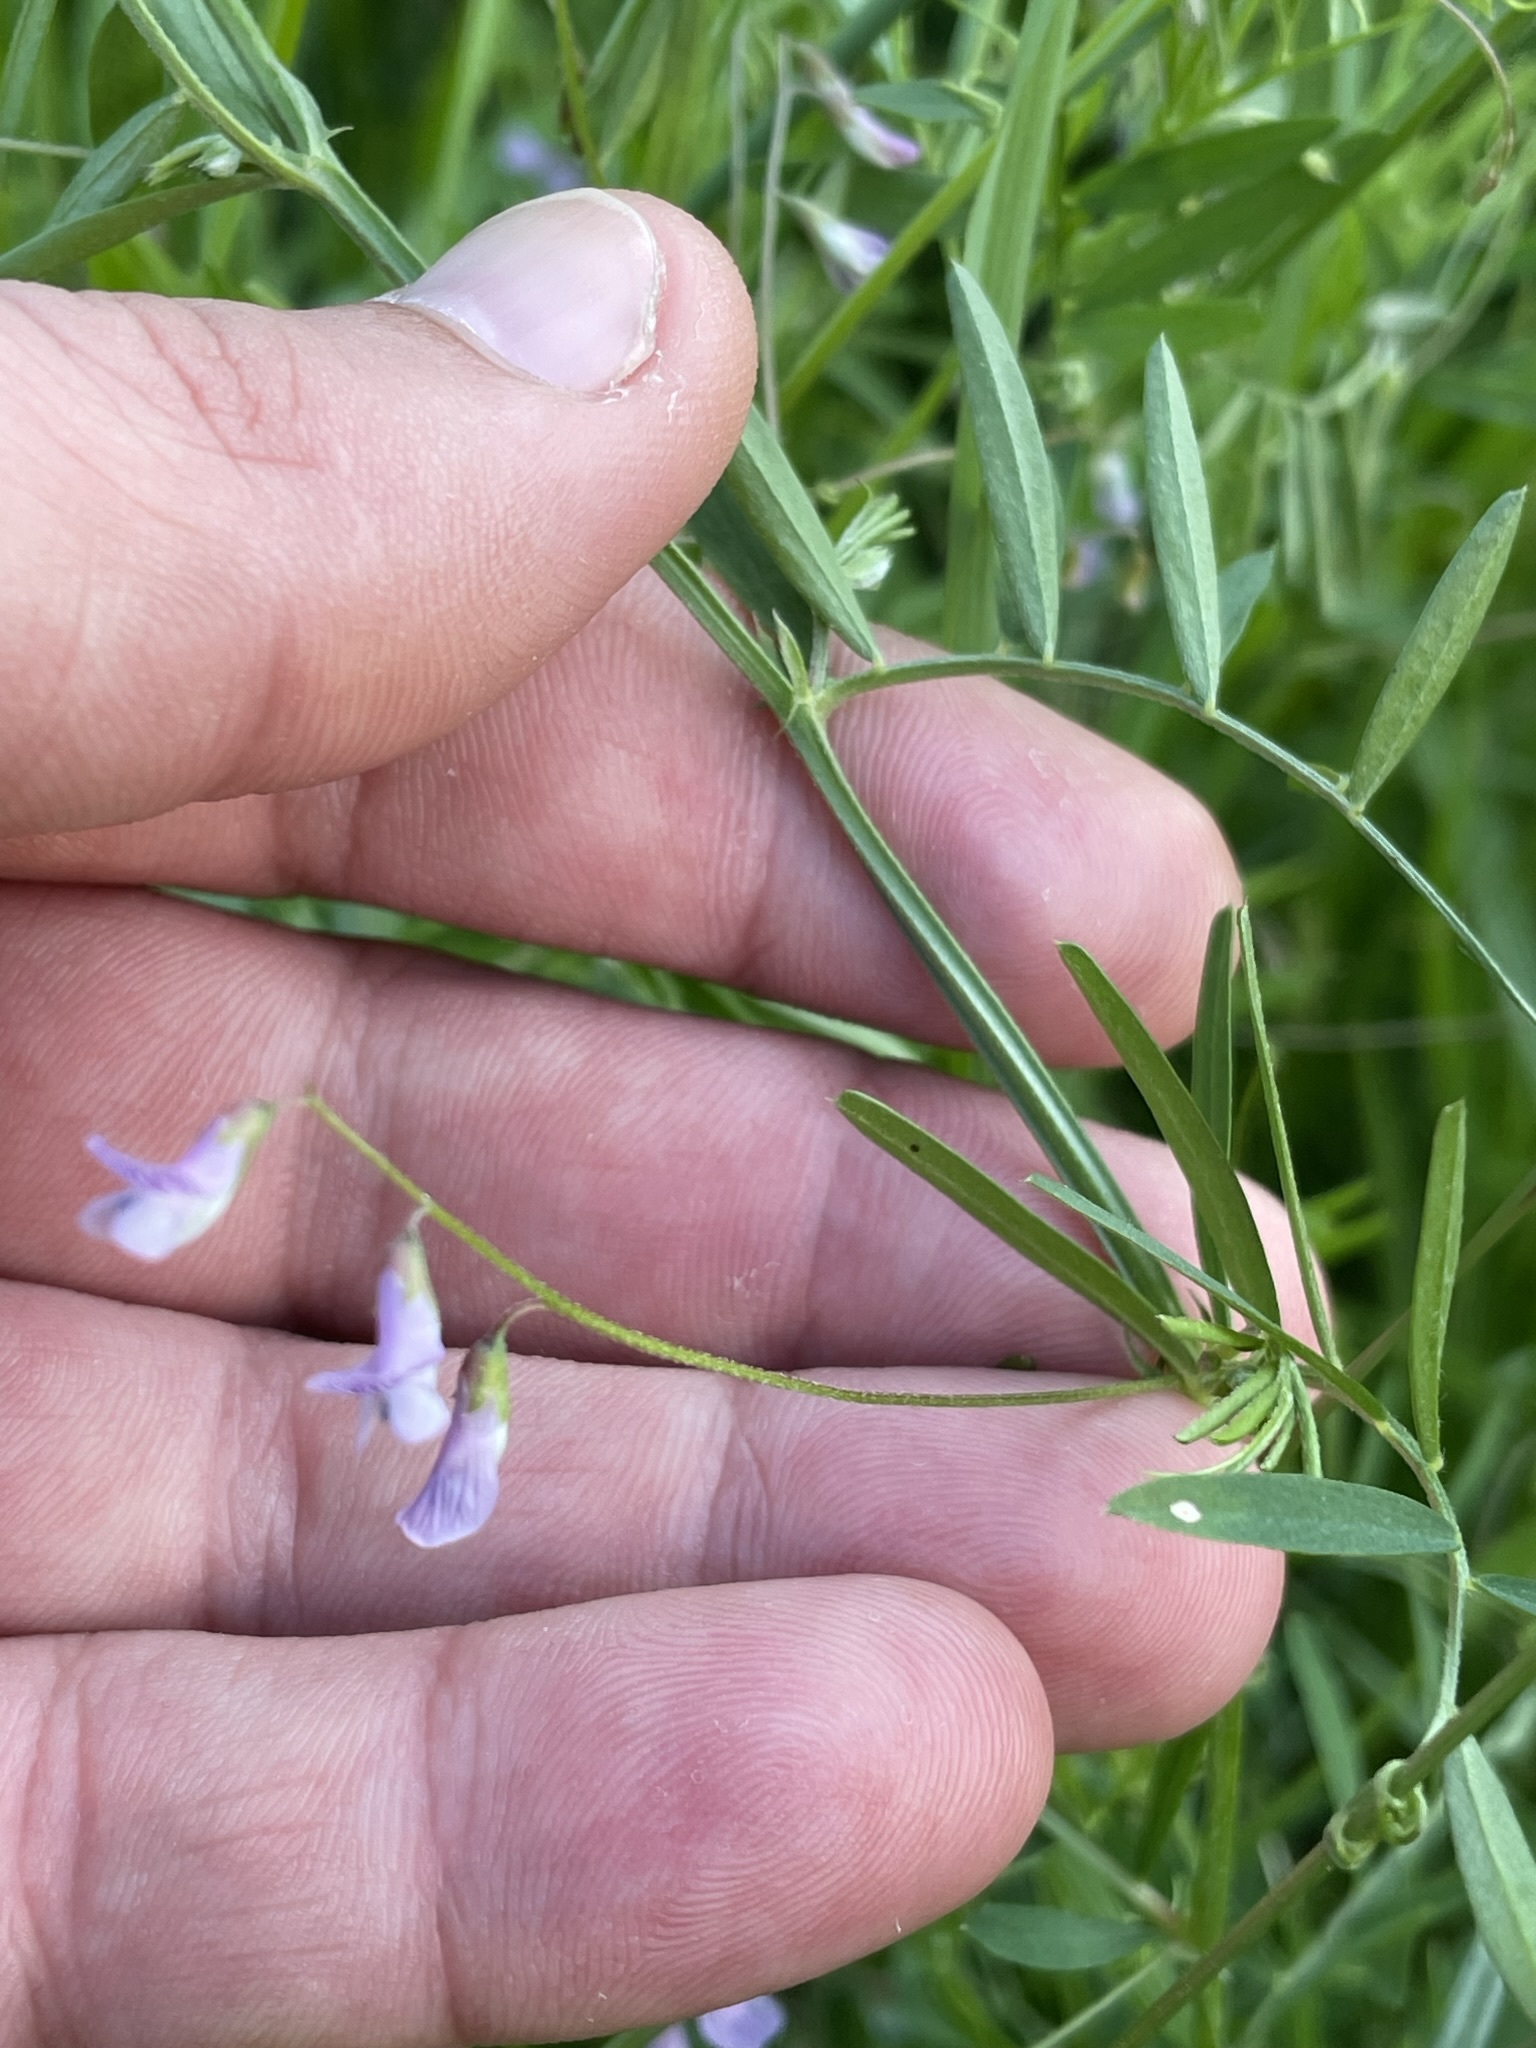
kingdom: Plantae
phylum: Tracheophyta
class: Magnoliopsida
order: Fabales
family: Fabaceae
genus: Vicia
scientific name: Vicia tetrasperma
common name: Smooth tare
